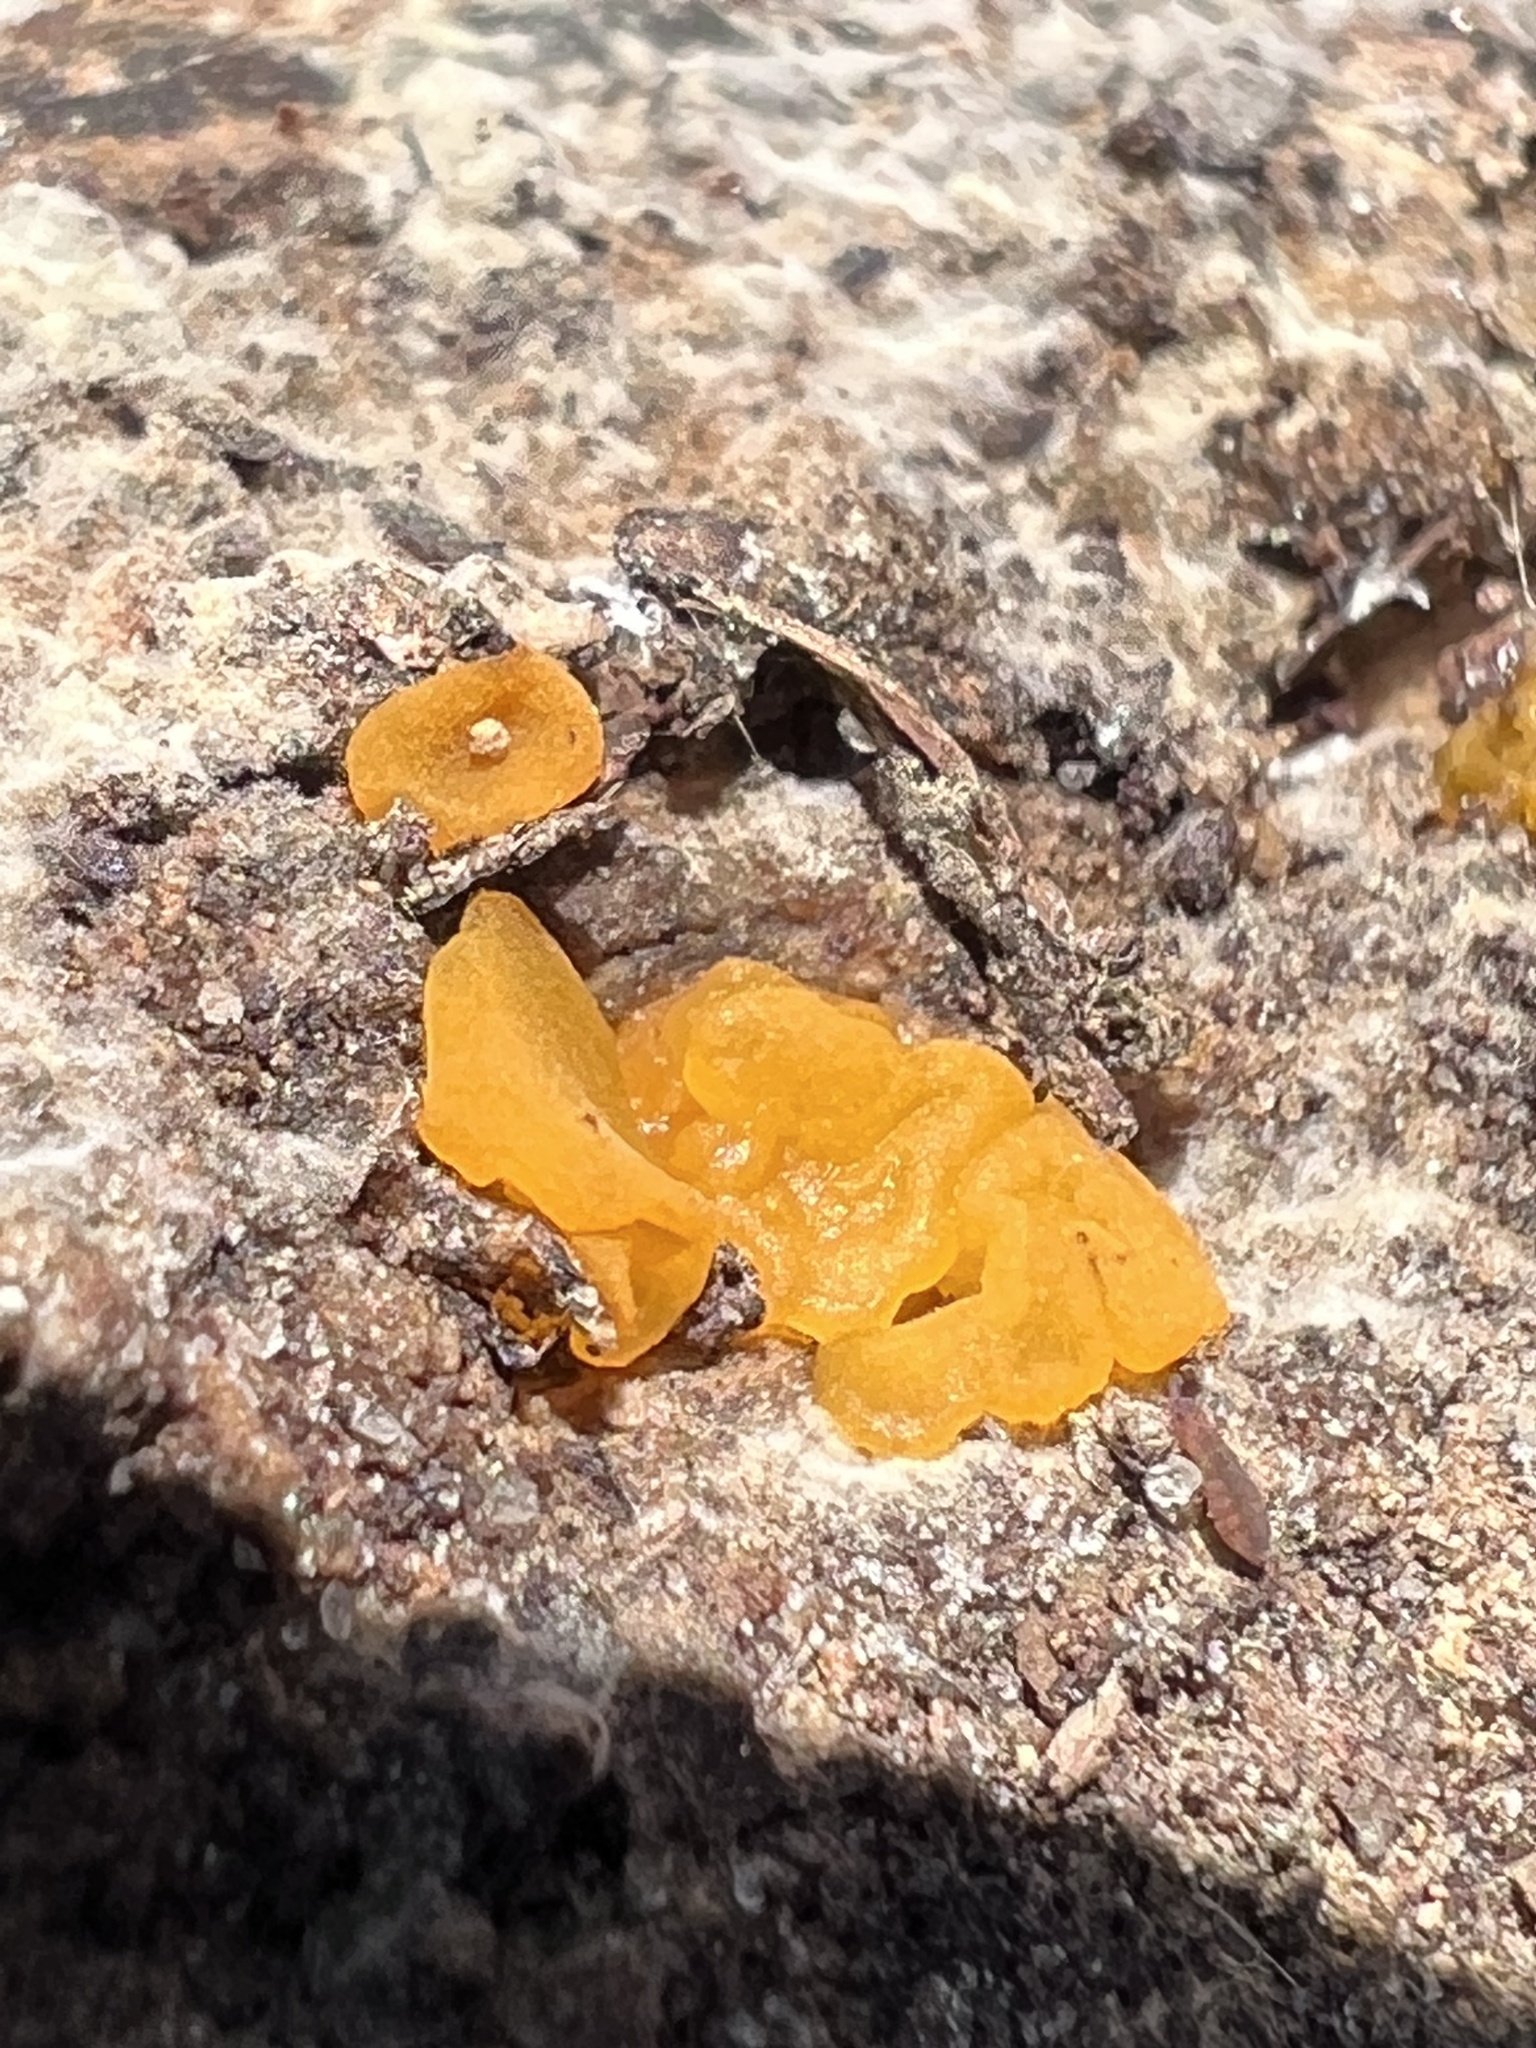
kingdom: Fungi
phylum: Basidiomycota
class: Dacrymycetes
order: Dacrymycetales
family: Dacrymycetaceae
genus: Dacrymyces
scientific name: Dacrymyces chrysospermus
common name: Orange jelly spot
